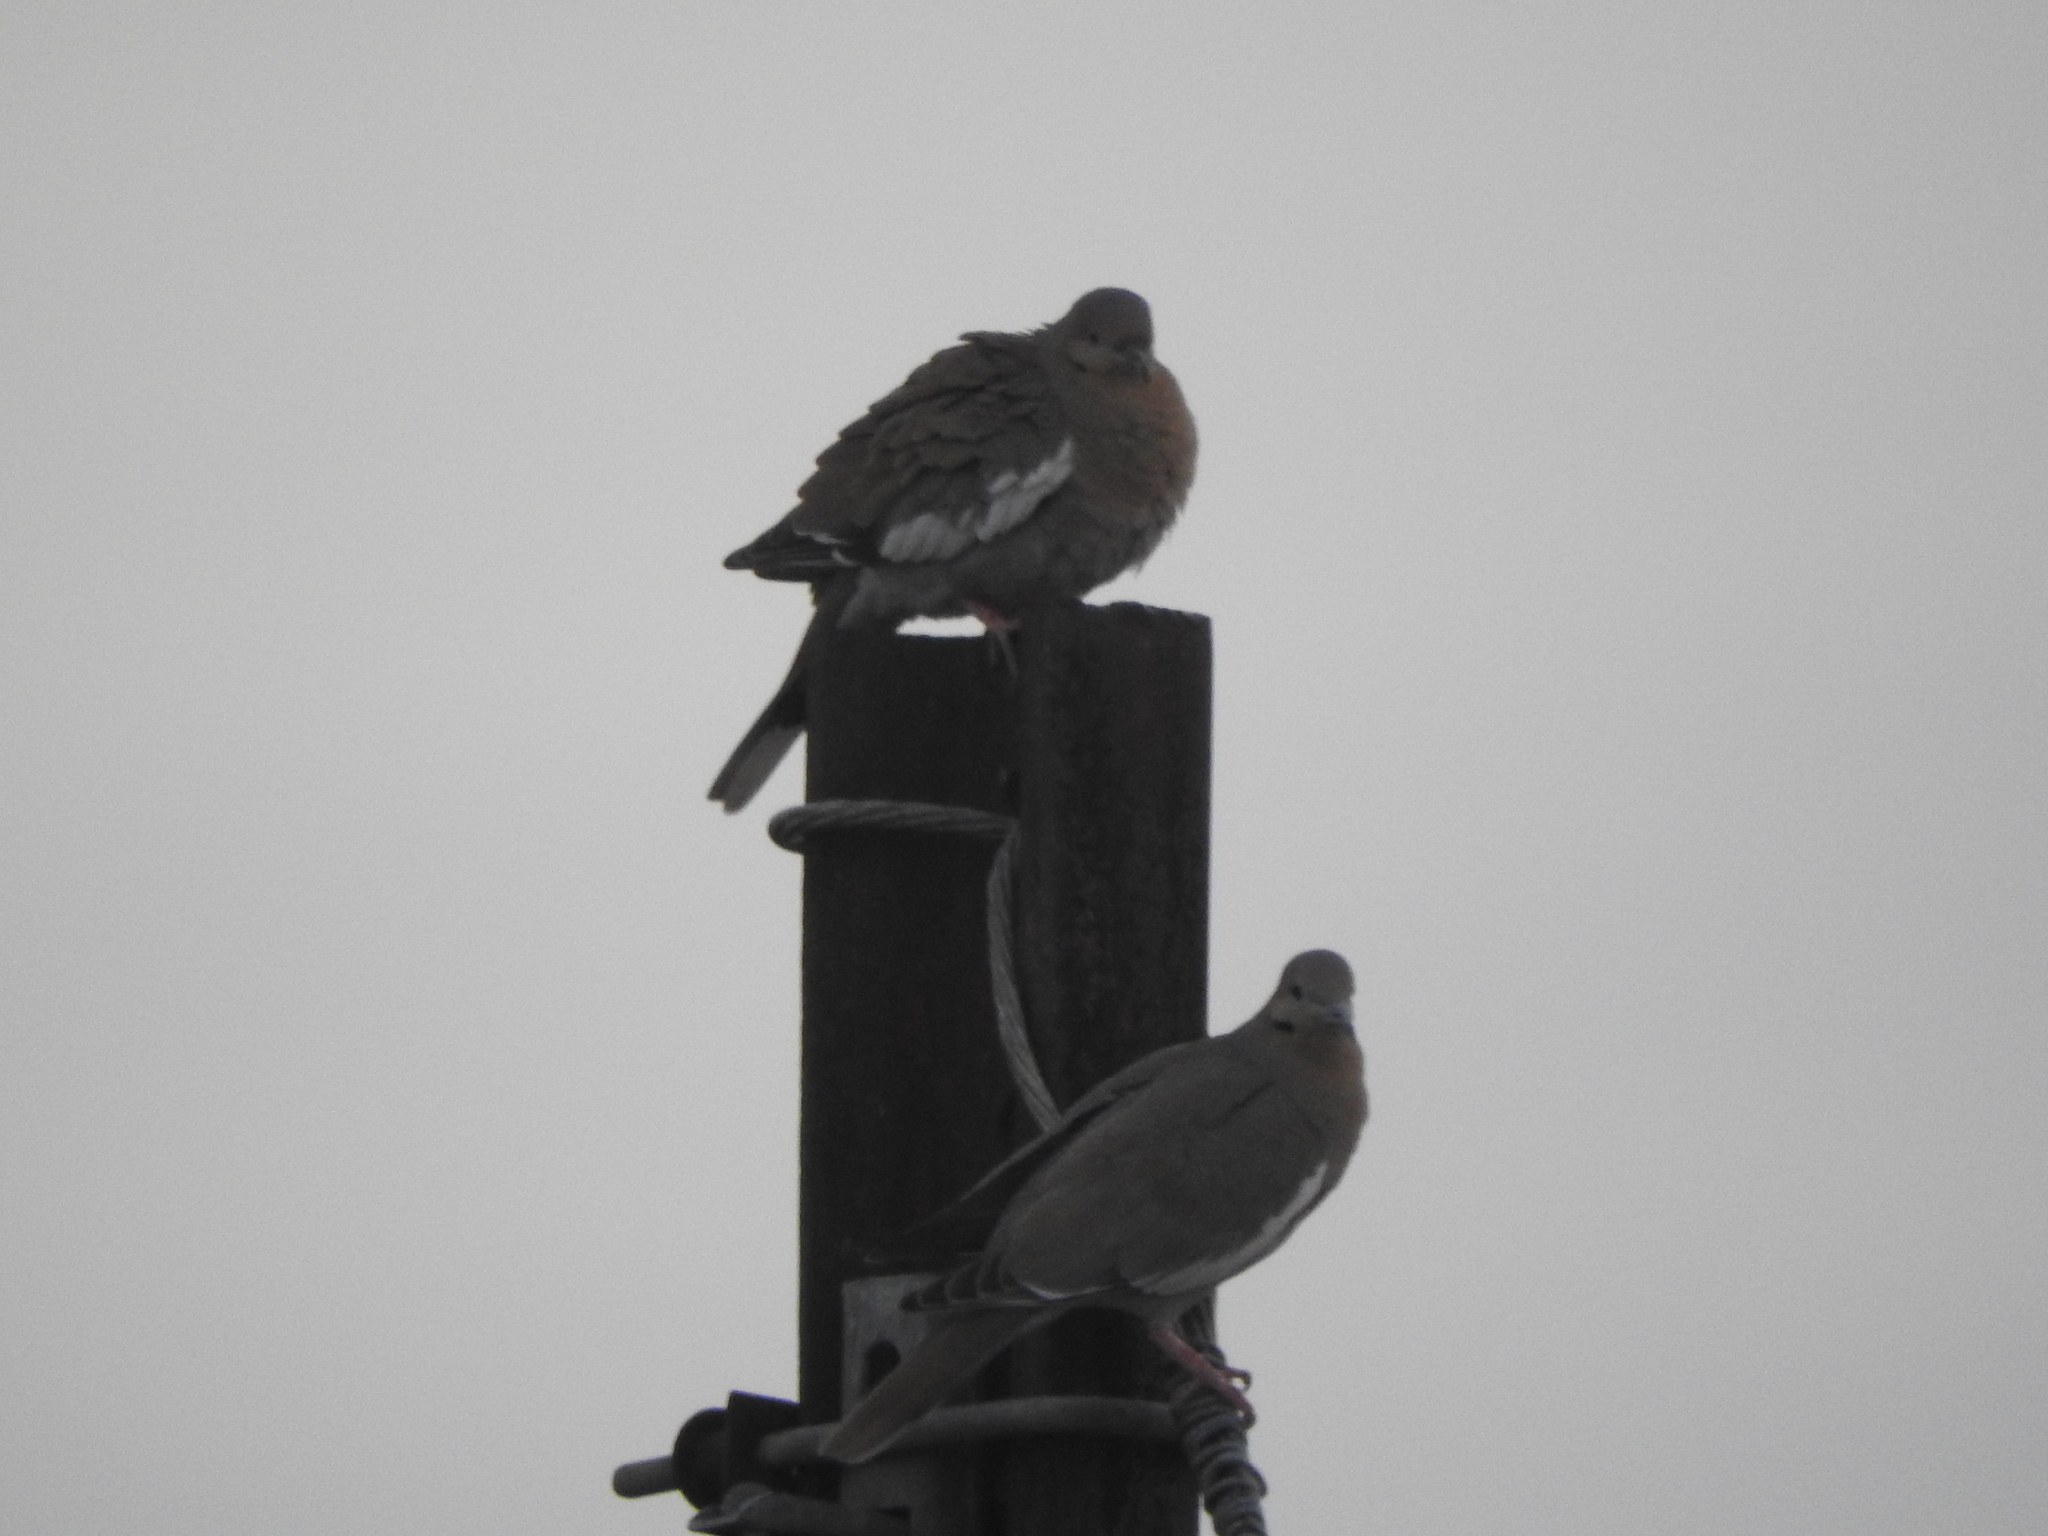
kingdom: Animalia
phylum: Chordata
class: Aves
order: Columbiformes
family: Columbidae
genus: Zenaida
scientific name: Zenaida asiatica
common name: White-winged dove
